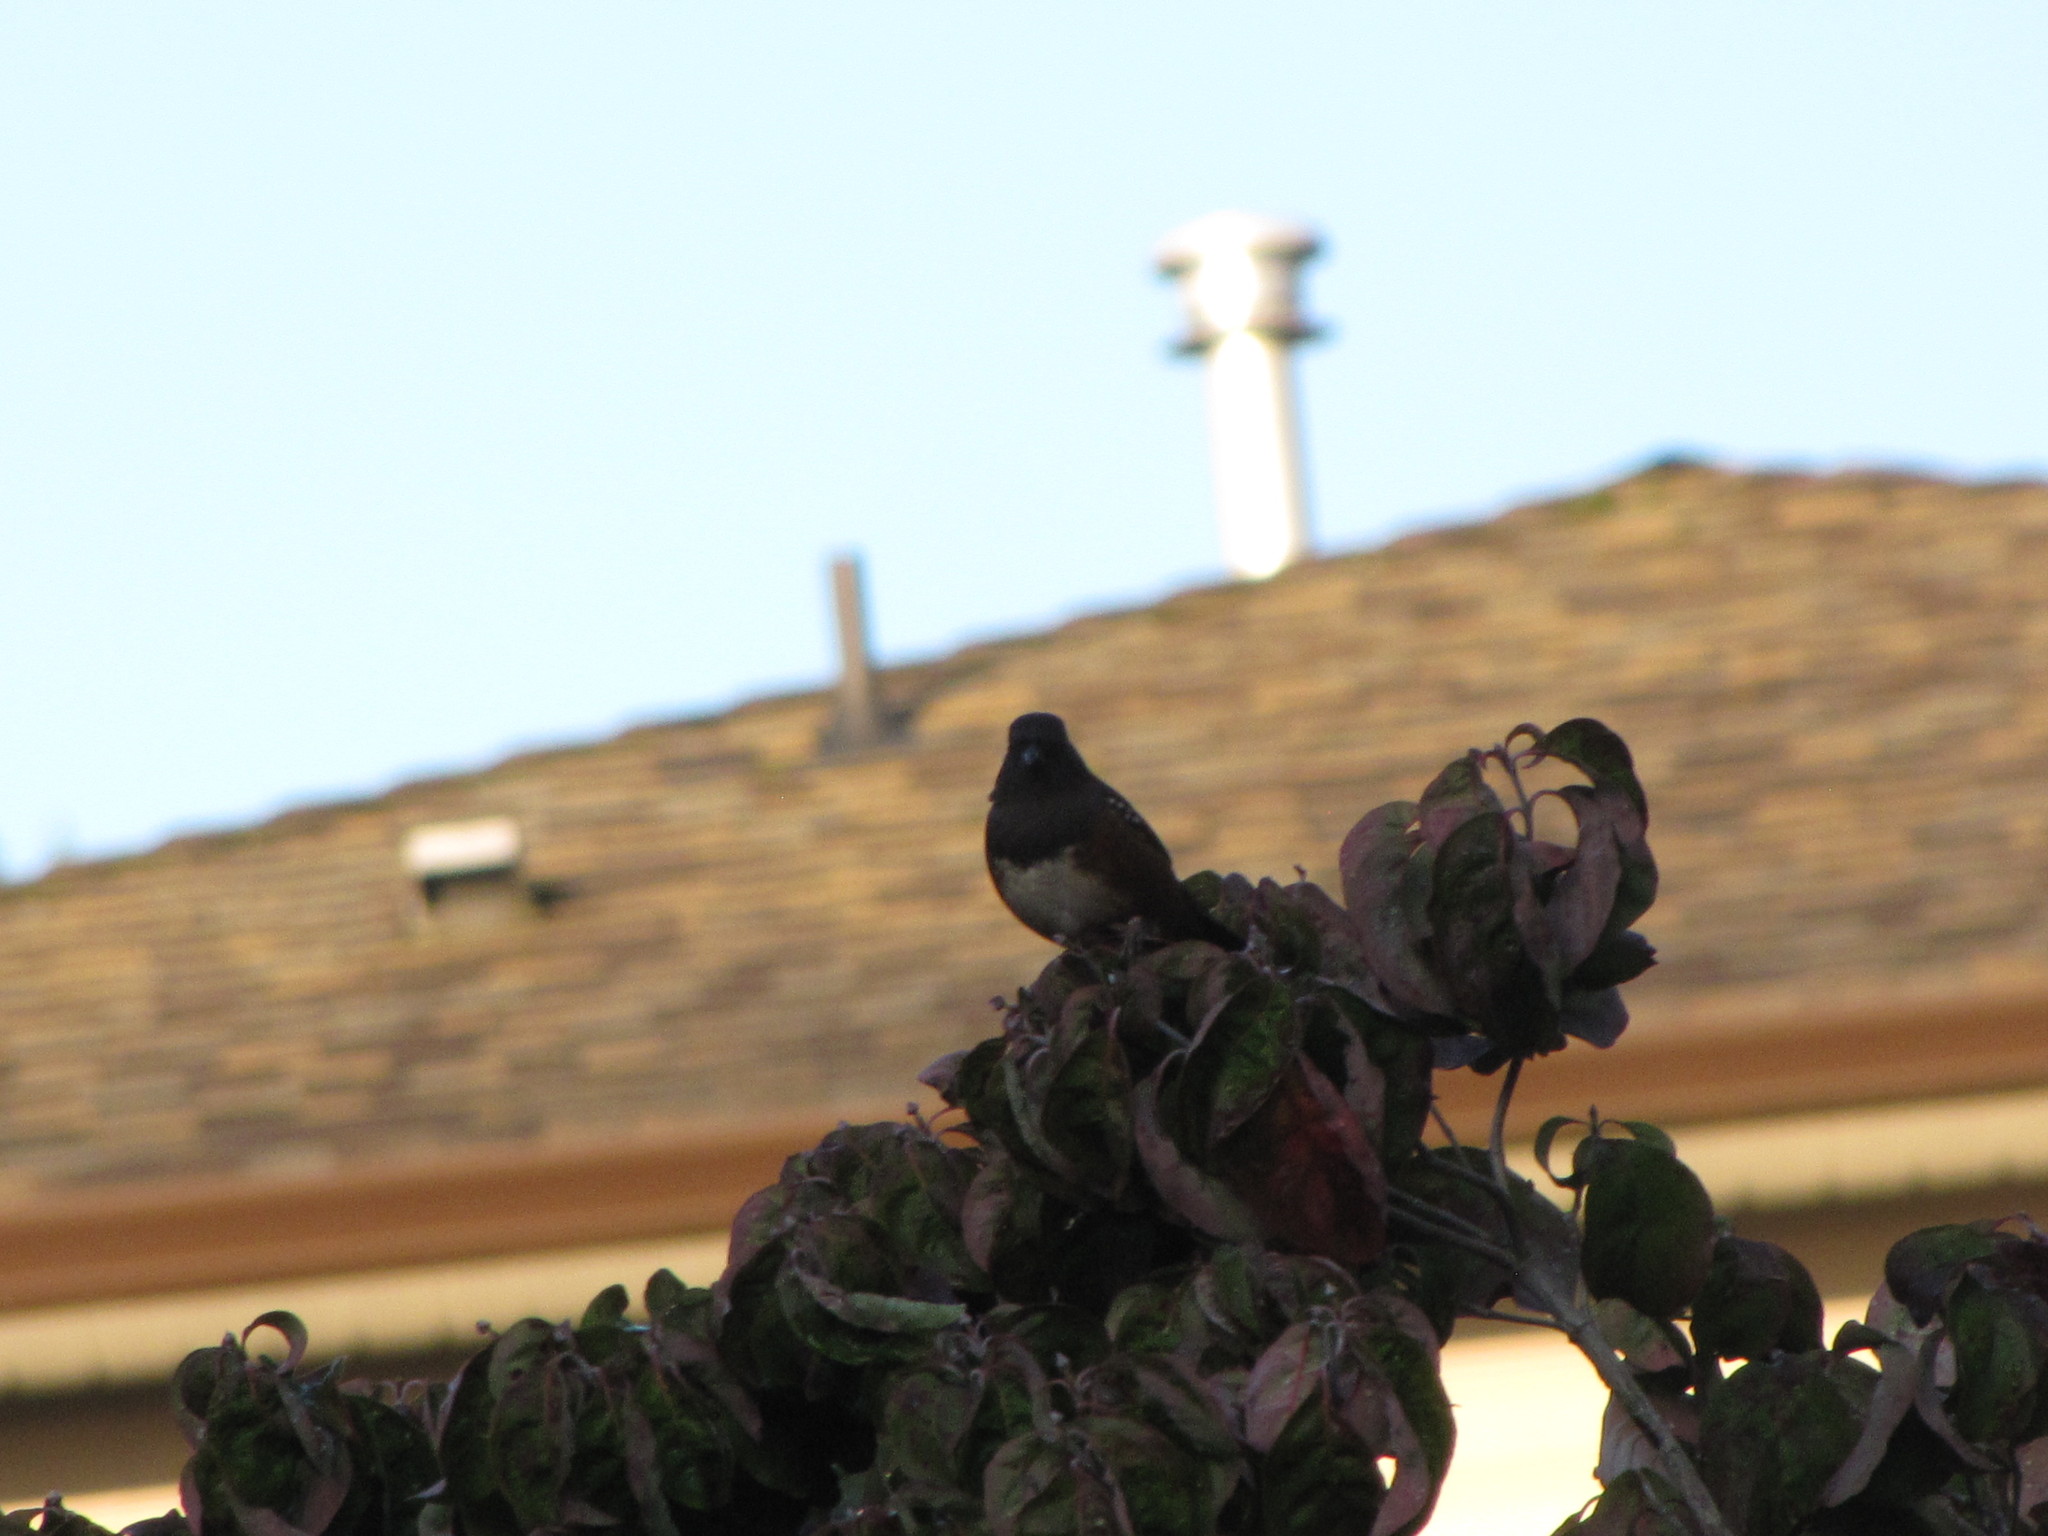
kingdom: Animalia
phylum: Chordata
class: Aves
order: Passeriformes
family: Passerellidae
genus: Pipilo
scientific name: Pipilo maculatus
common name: Spotted towhee
